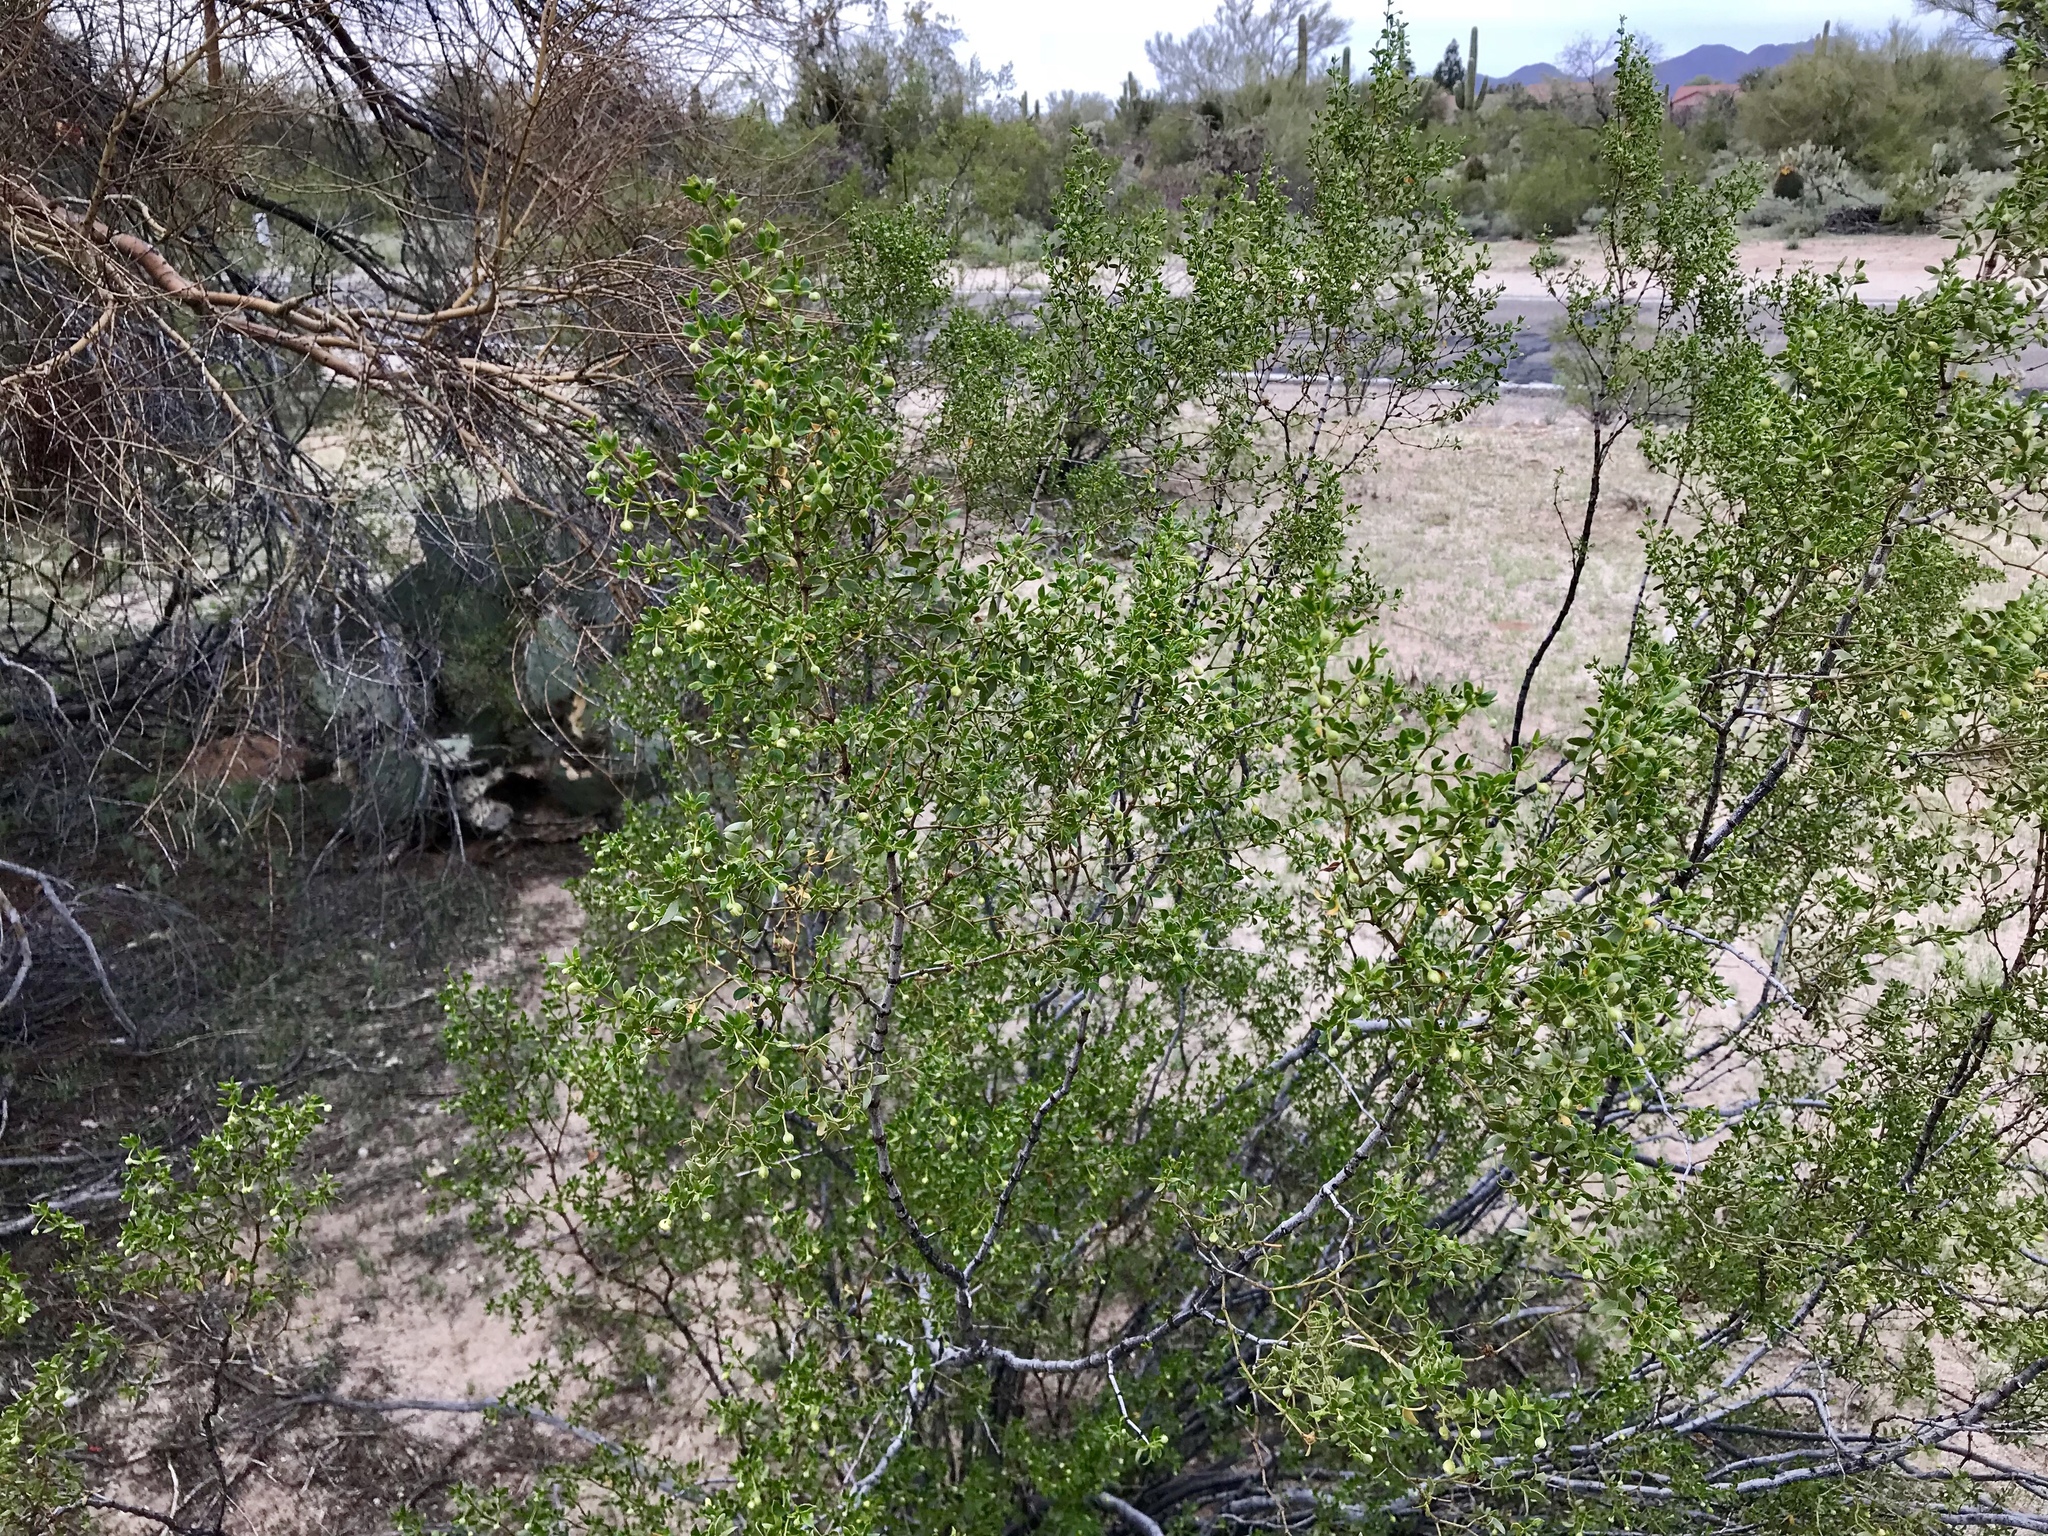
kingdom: Plantae
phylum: Tracheophyta
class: Magnoliopsida
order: Zygophyllales
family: Zygophyllaceae
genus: Larrea
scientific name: Larrea tridentata
